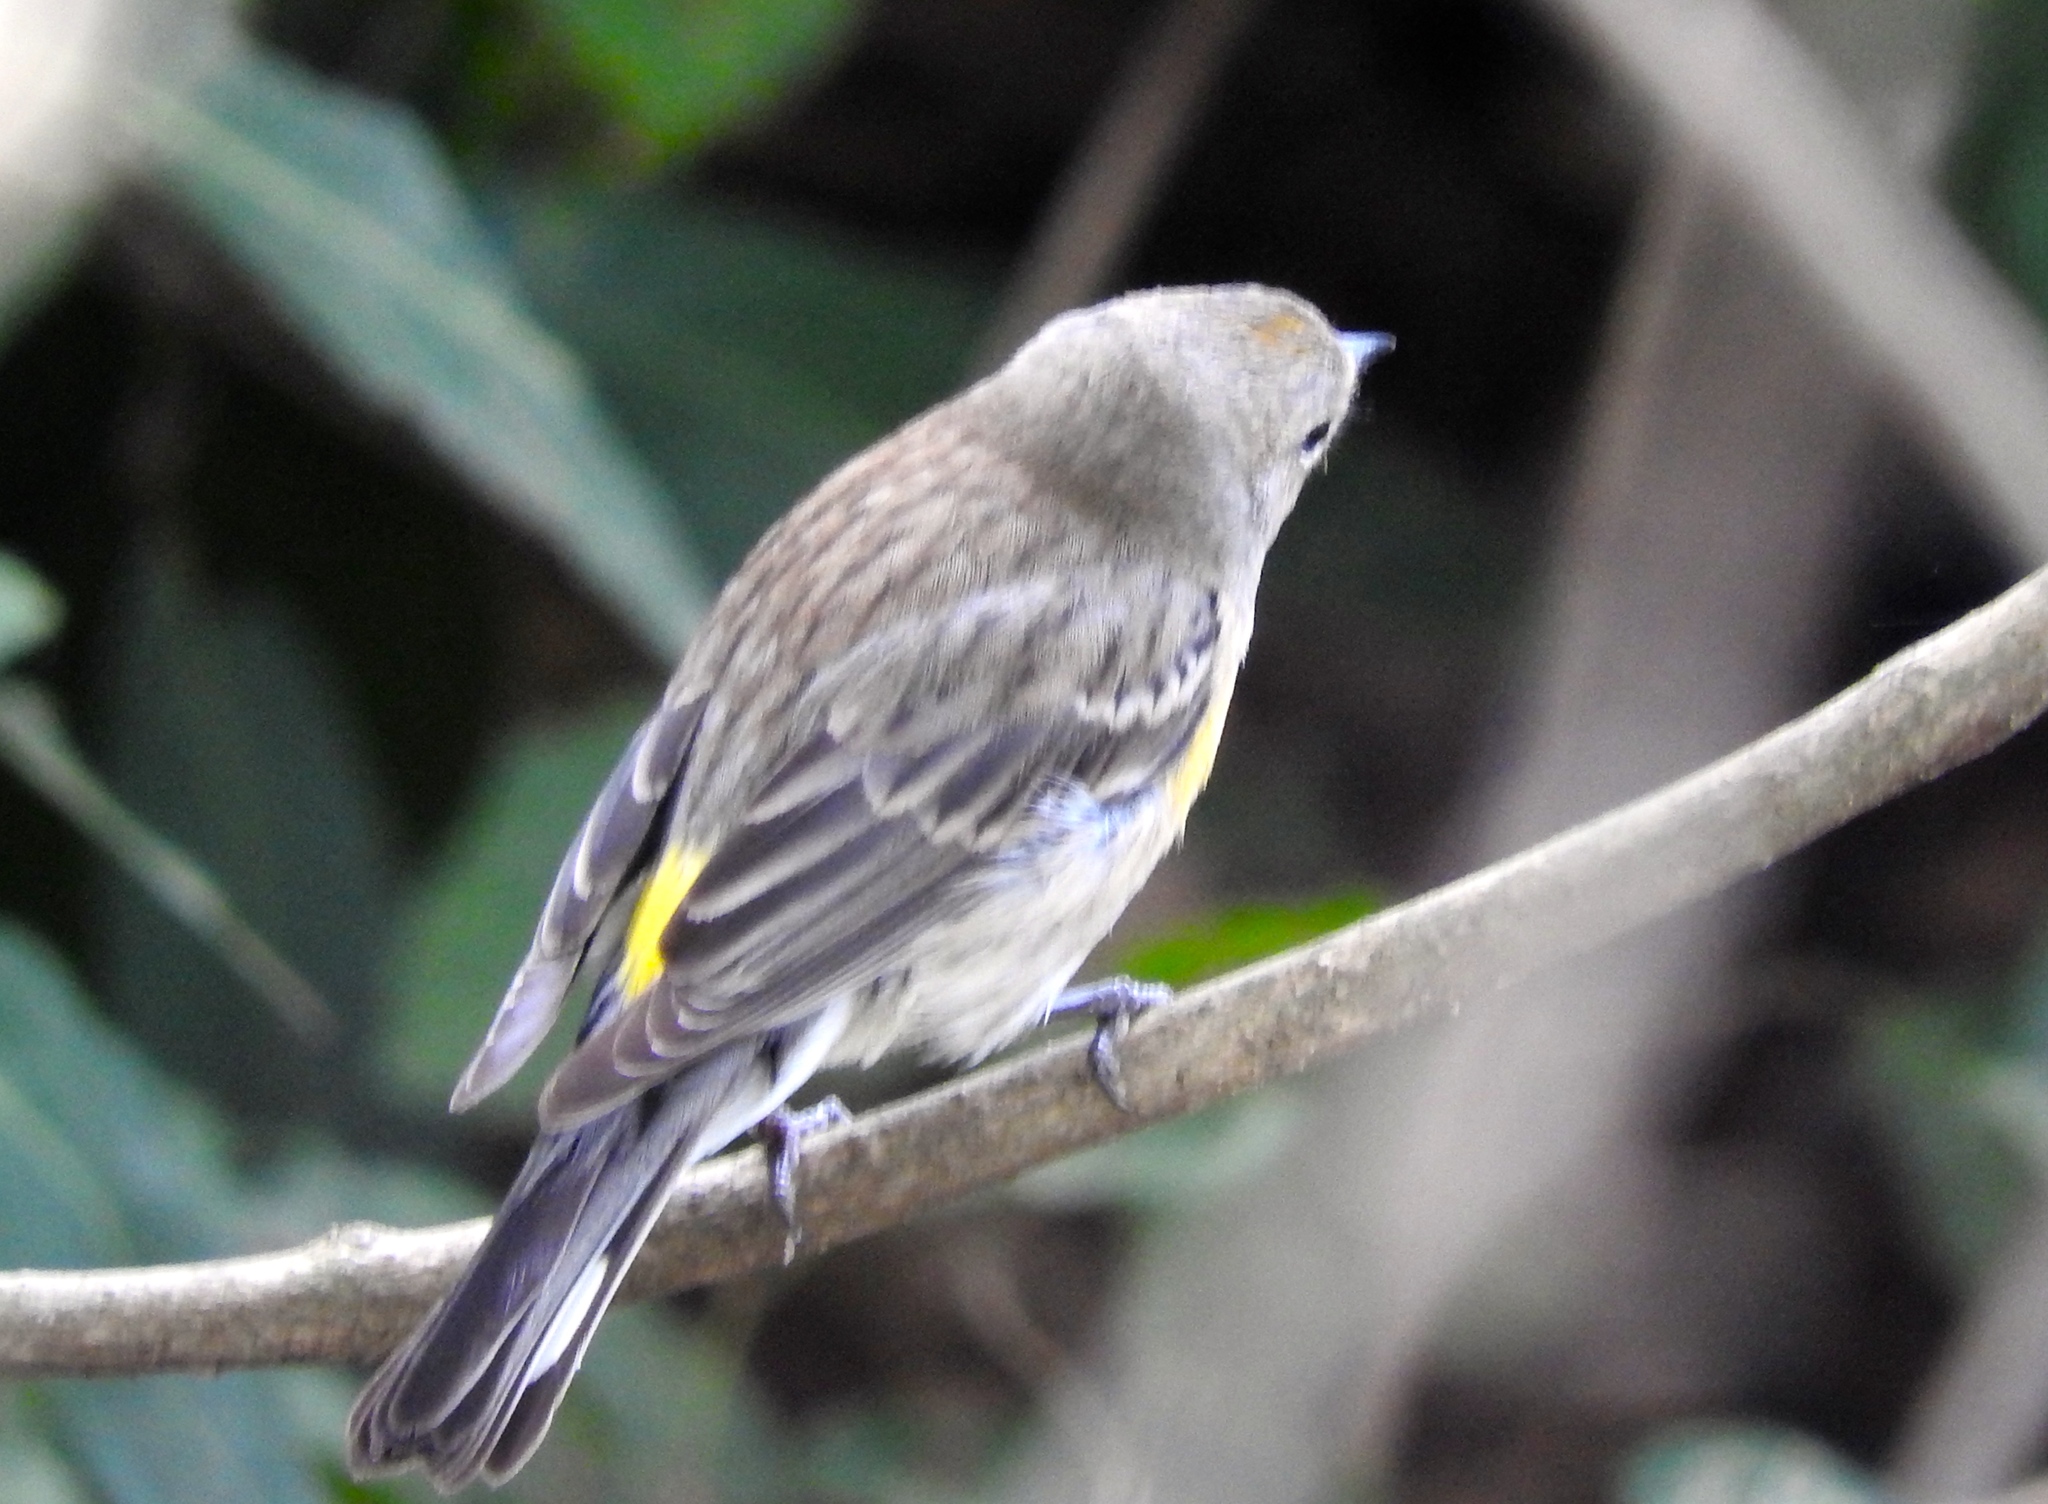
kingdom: Animalia
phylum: Chordata
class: Aves
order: Passeriformes
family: Parulidae
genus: Setophaga
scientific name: Setophaga coronata
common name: Myrtle warbler
